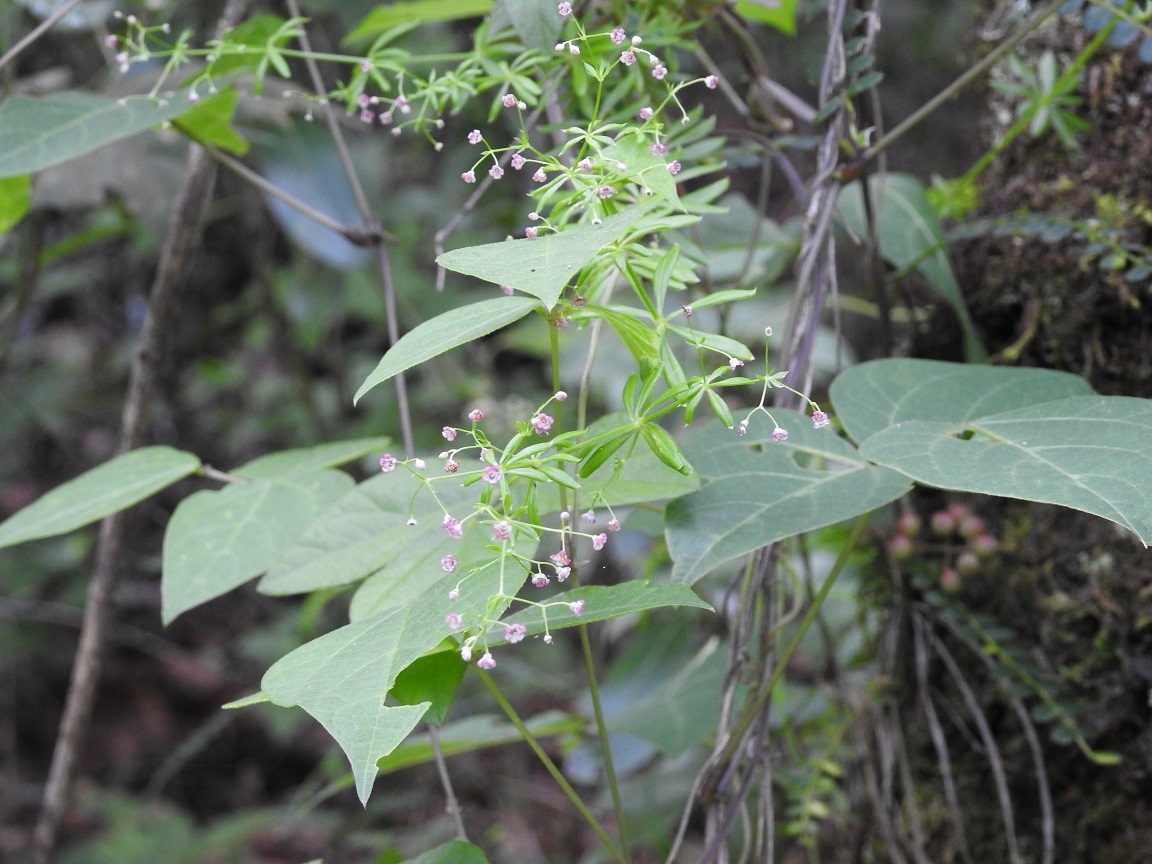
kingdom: Plantae
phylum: Tracheophyta
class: Magnoliopsida
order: Gentianales
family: Rubiaceae
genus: Galium
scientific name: Galium mexicanum
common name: Mexican bedstraw
